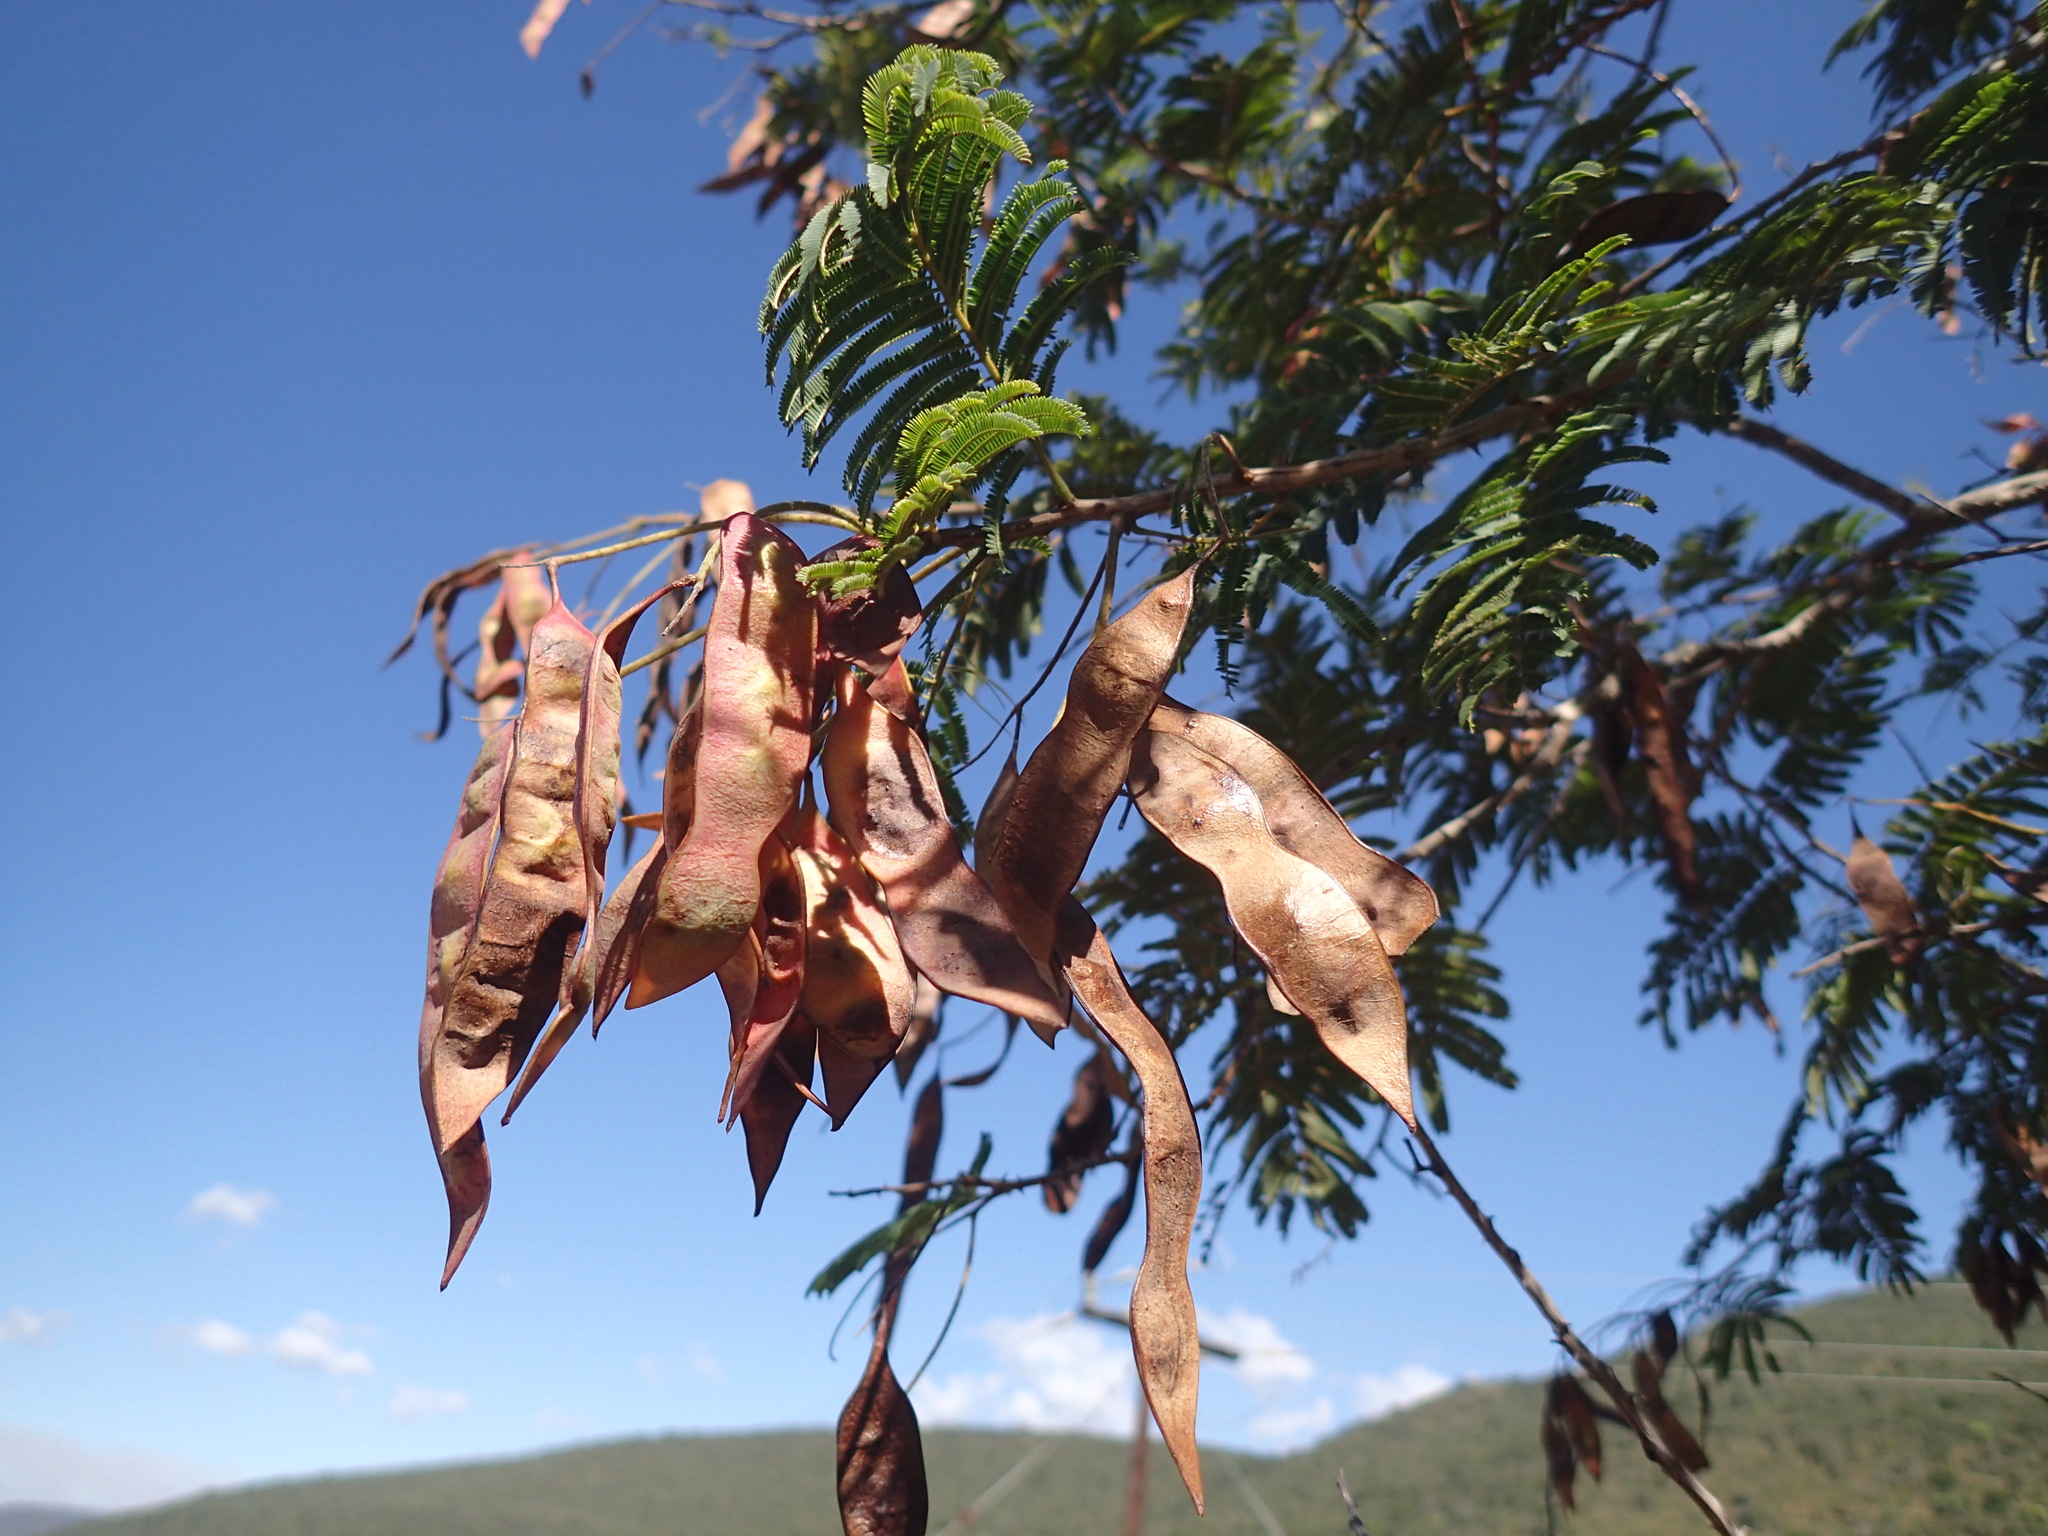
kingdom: Plantae
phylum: Tracheophyta
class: Magnoliopsida
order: Fabales
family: Fabaceae
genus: Senegalia
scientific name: Senegalia ataxacantha
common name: Flame acacia
